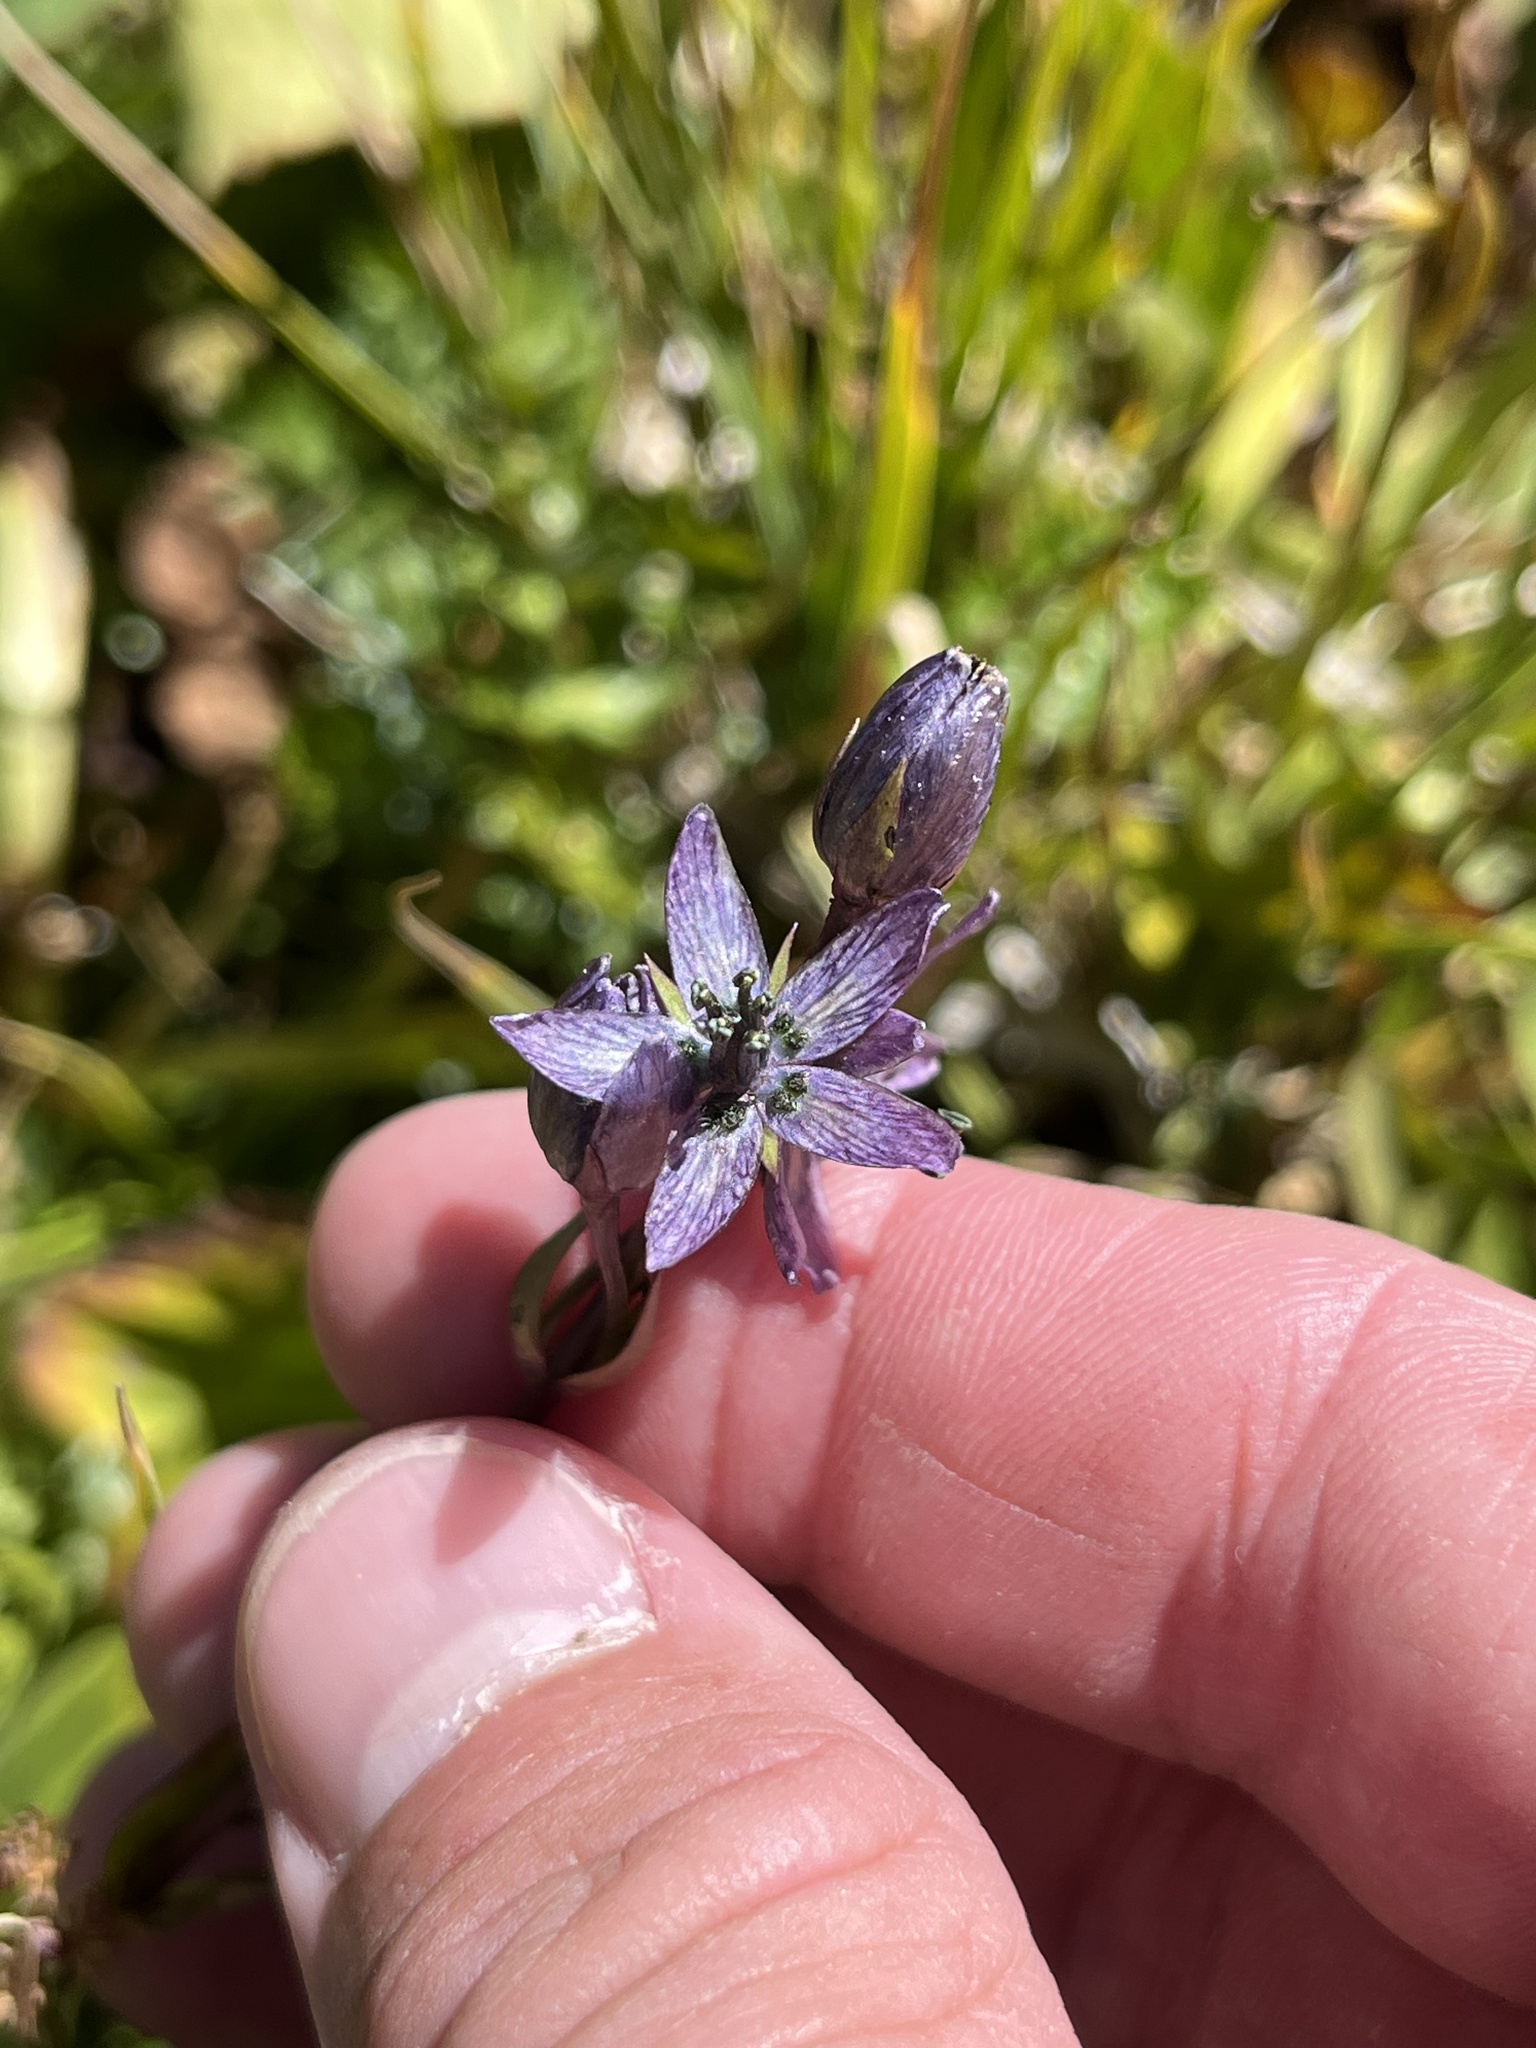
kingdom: Plantae
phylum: Tracheophyta
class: Magnoliopsida
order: Gentianales
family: Gentianaceae
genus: Swertia
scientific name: Swertia perennis
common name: Alpine bog swertia
